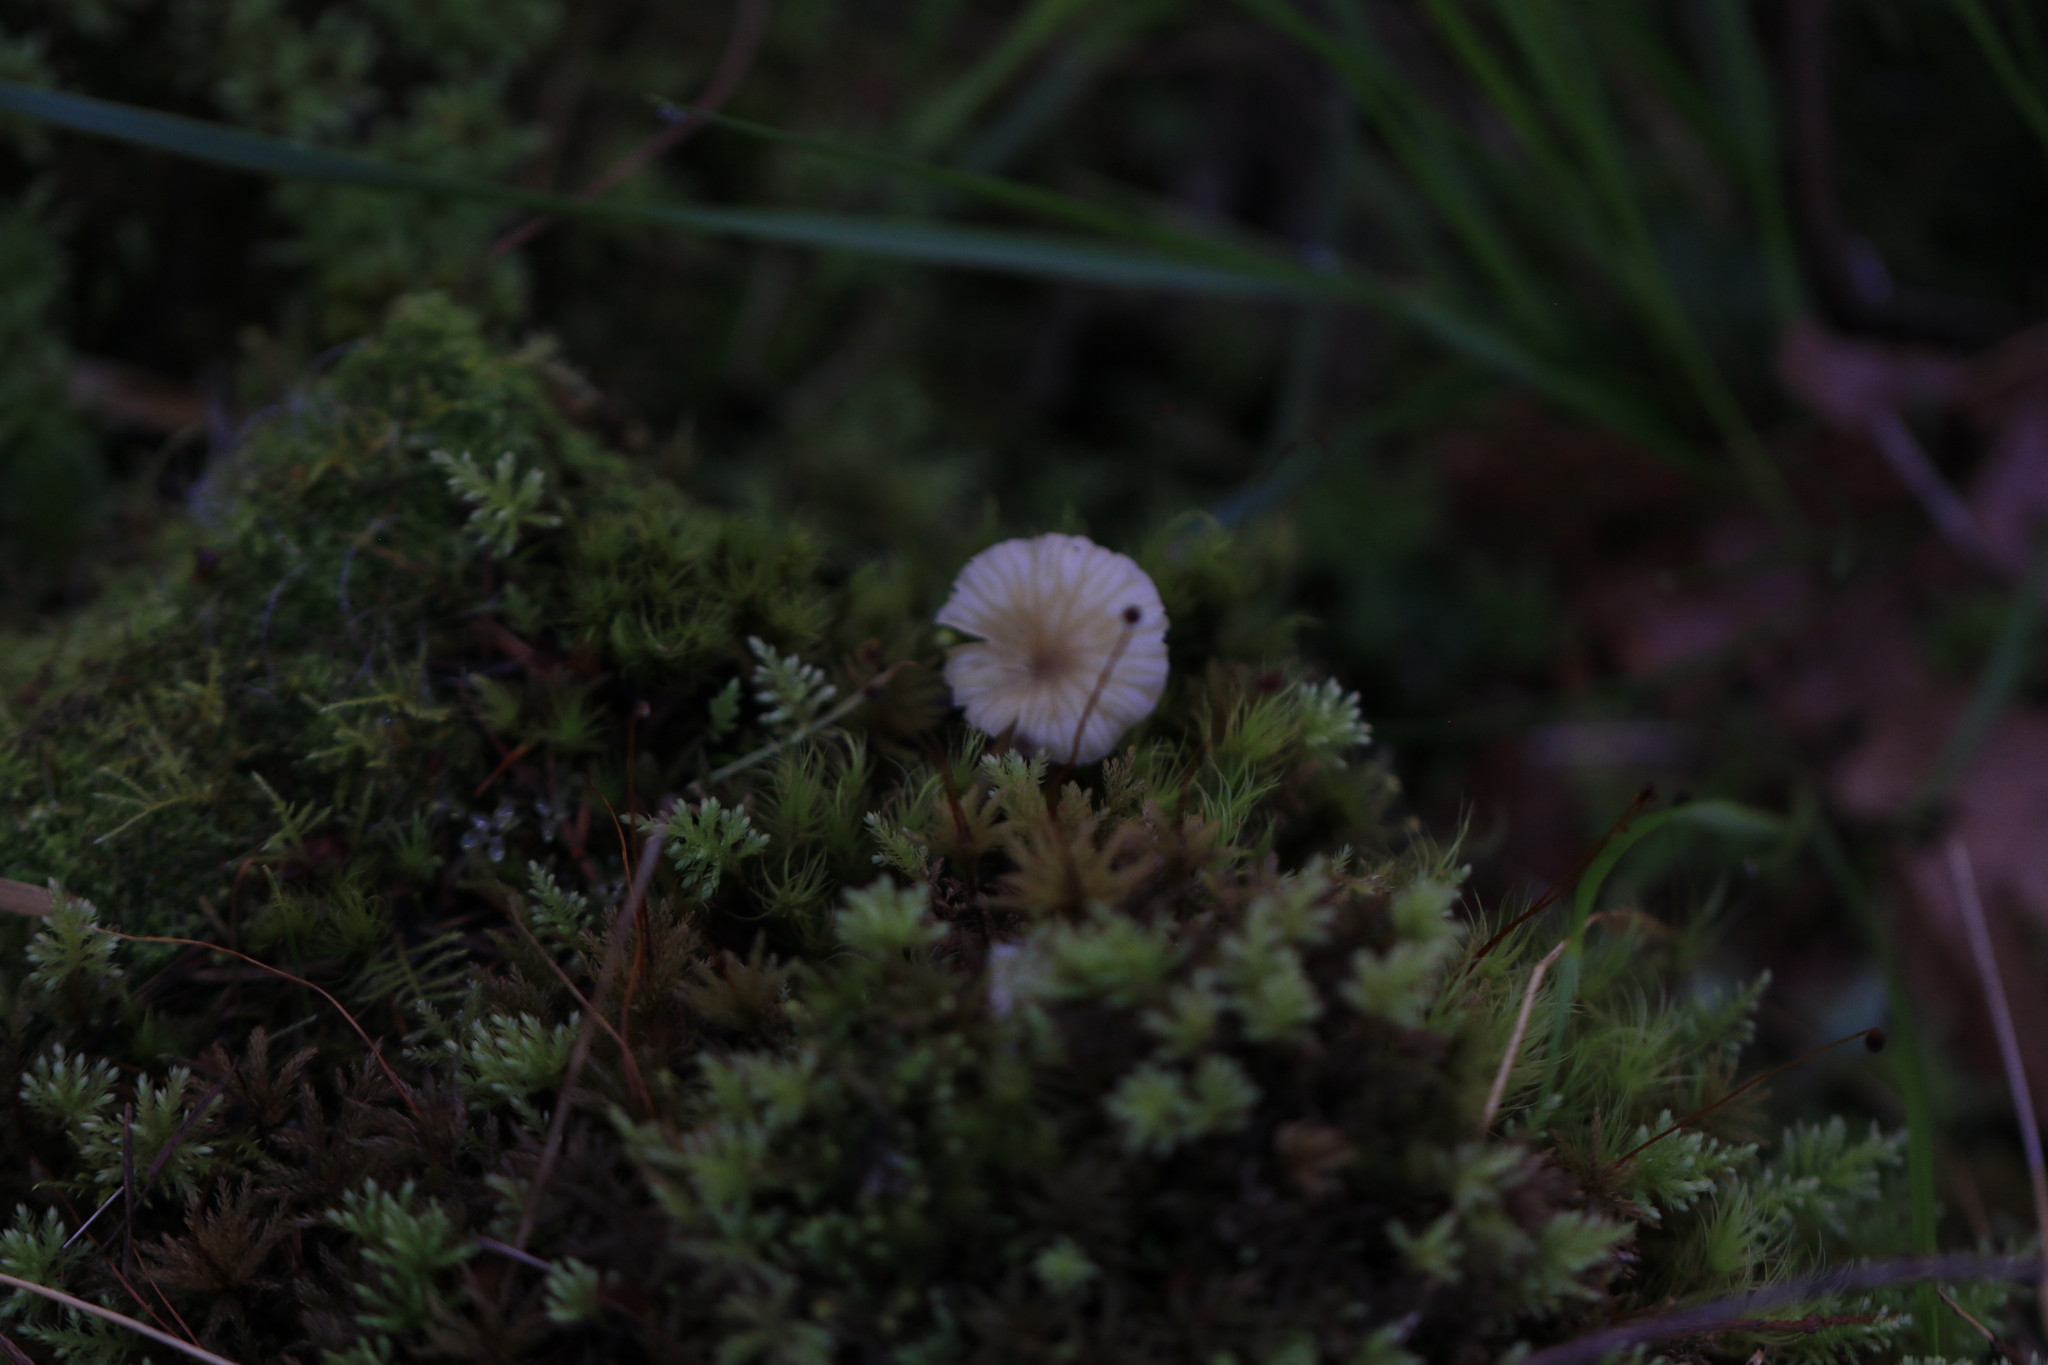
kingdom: Fungi
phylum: Basidiomycota
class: Agaricomycetes
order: Agaricales
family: Hygrophoraceae
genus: Lichenomphalia
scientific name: Lichenomphalia
